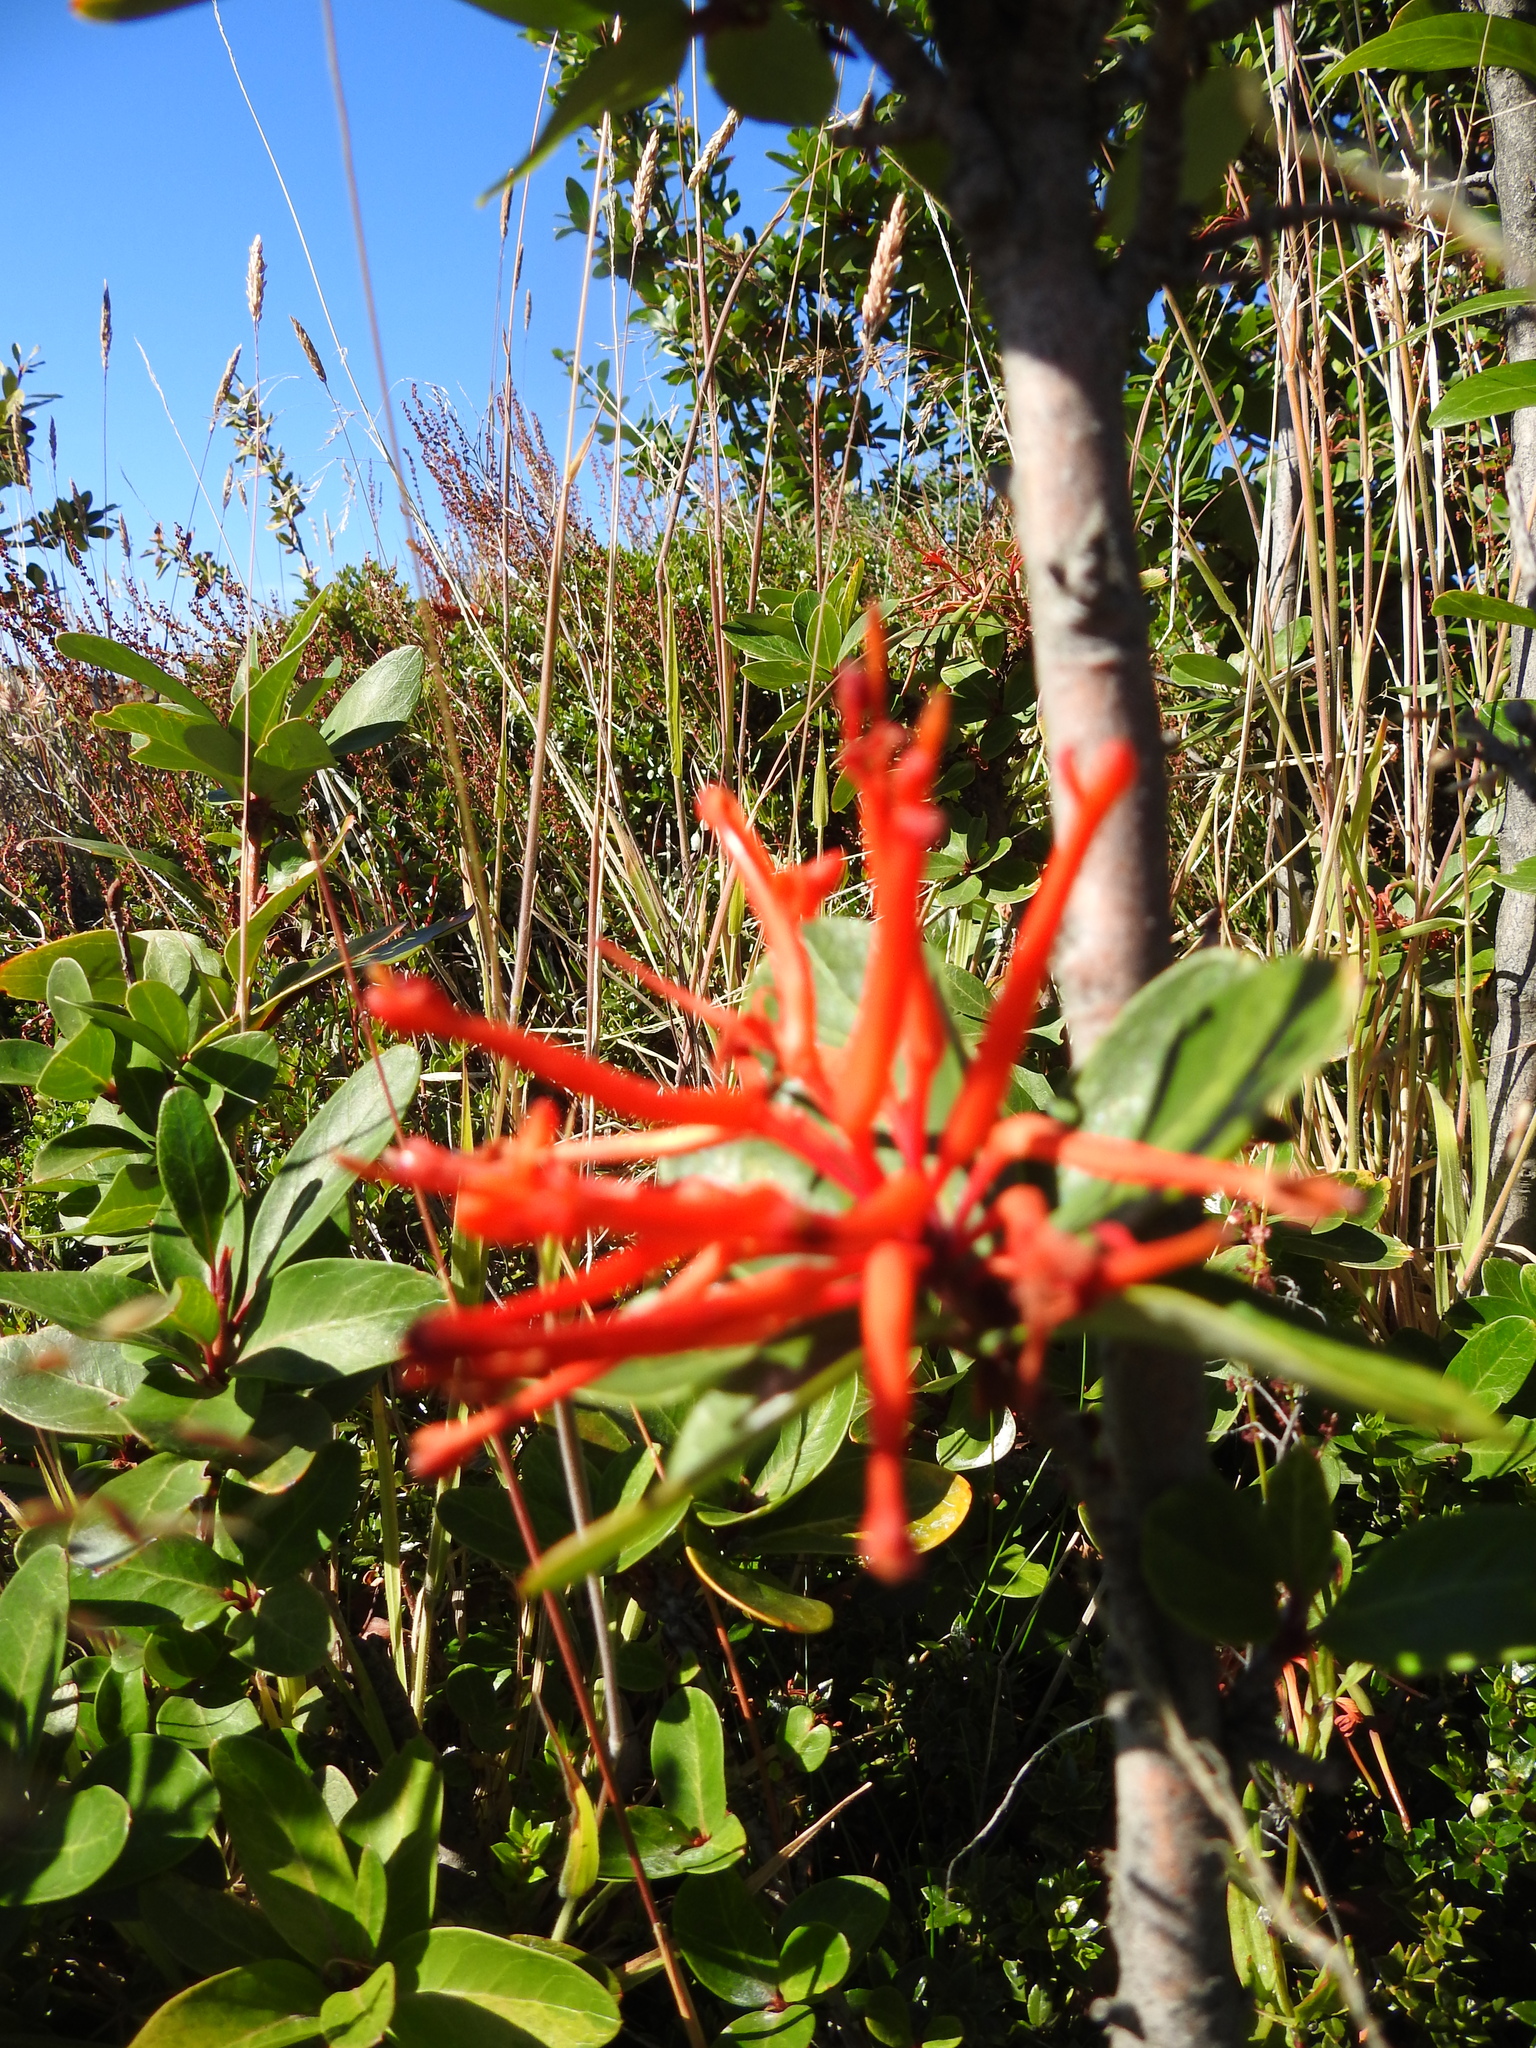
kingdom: Plantae
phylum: Tracheophyta
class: Magnoliopsida
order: Proteales
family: Proteaceae
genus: Embothrium
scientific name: Embothrium coccineum
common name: Chilean firebush
